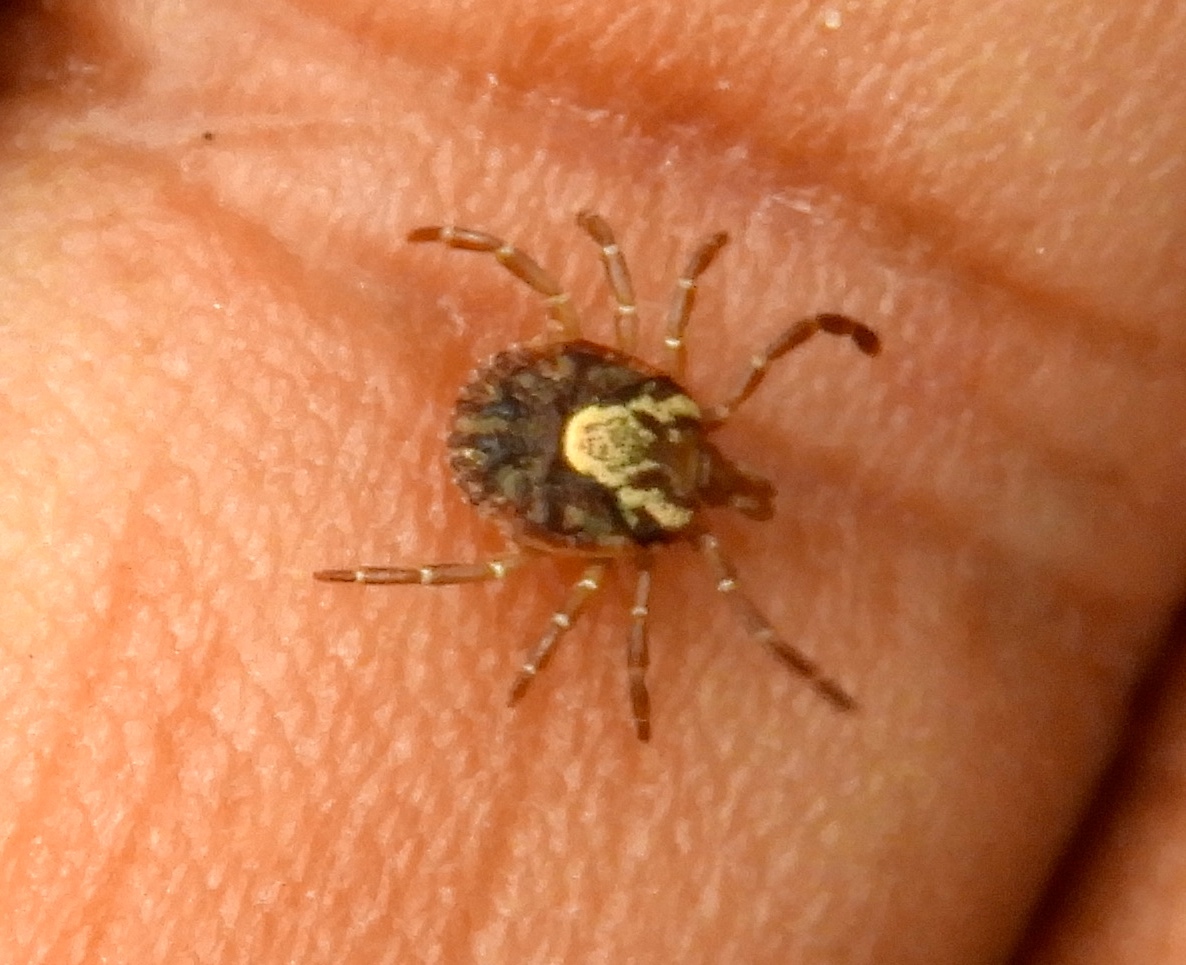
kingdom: Animalia
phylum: Arthropoda
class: Arachnida
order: Ixodida
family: Ixodidae
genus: Amblyomma
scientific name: Amblyomma
